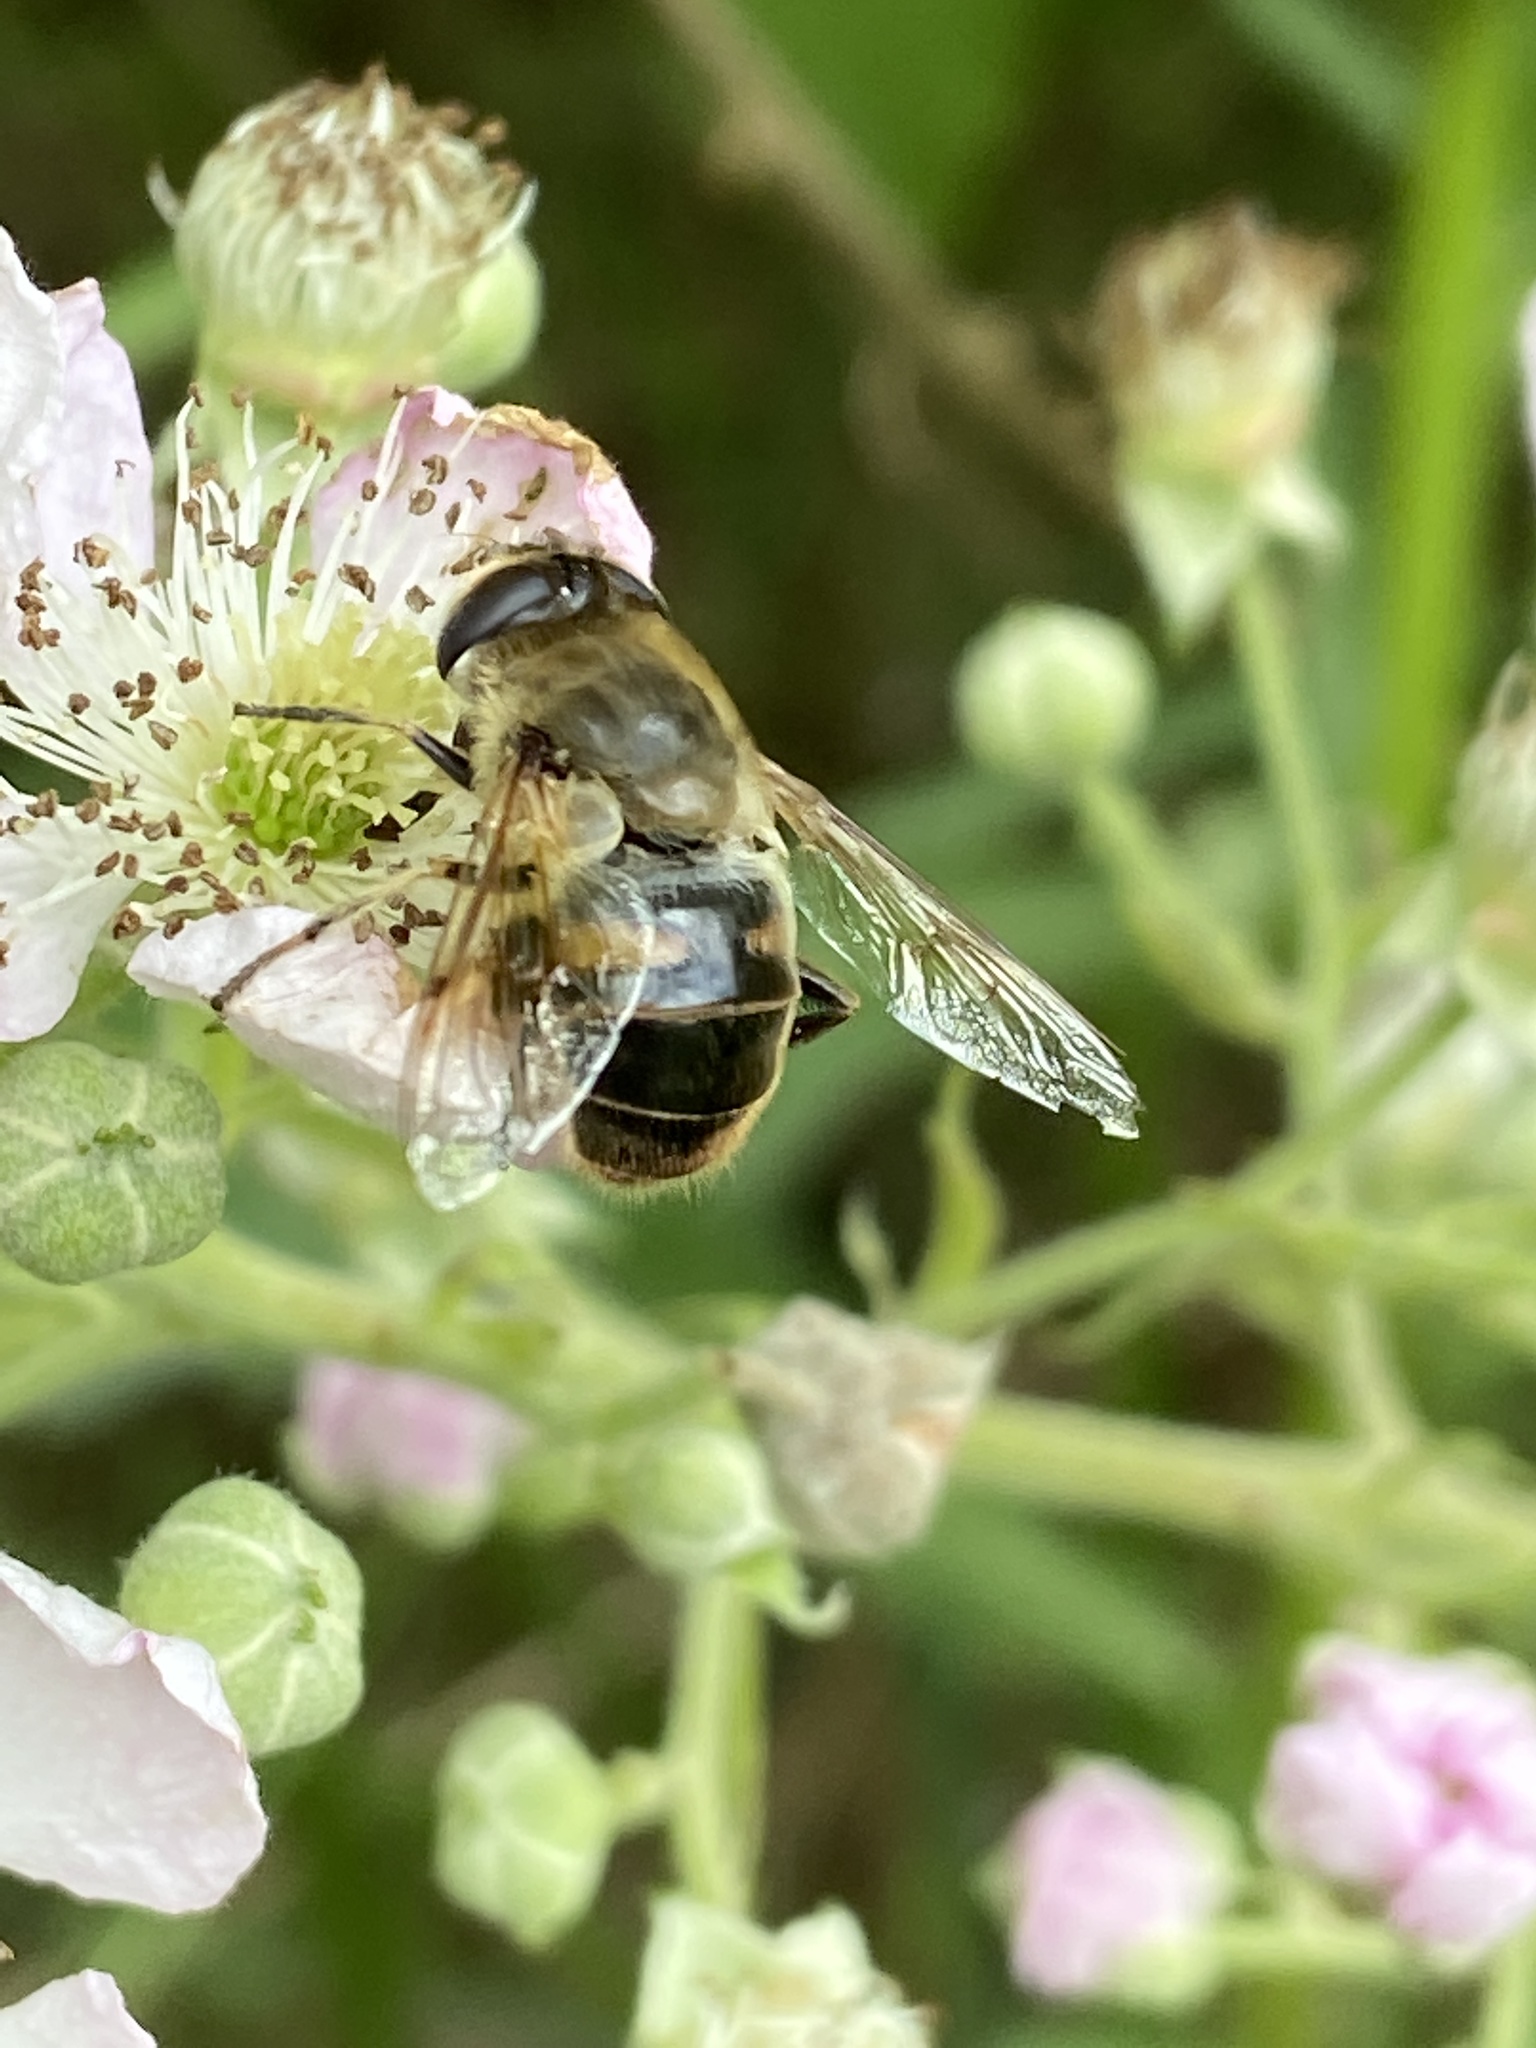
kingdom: Animalia
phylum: Arthropoda
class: Insecta
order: Diptera
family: Syrphidae
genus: Eristalis
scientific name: Eristalis tenax
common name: Drone fly
